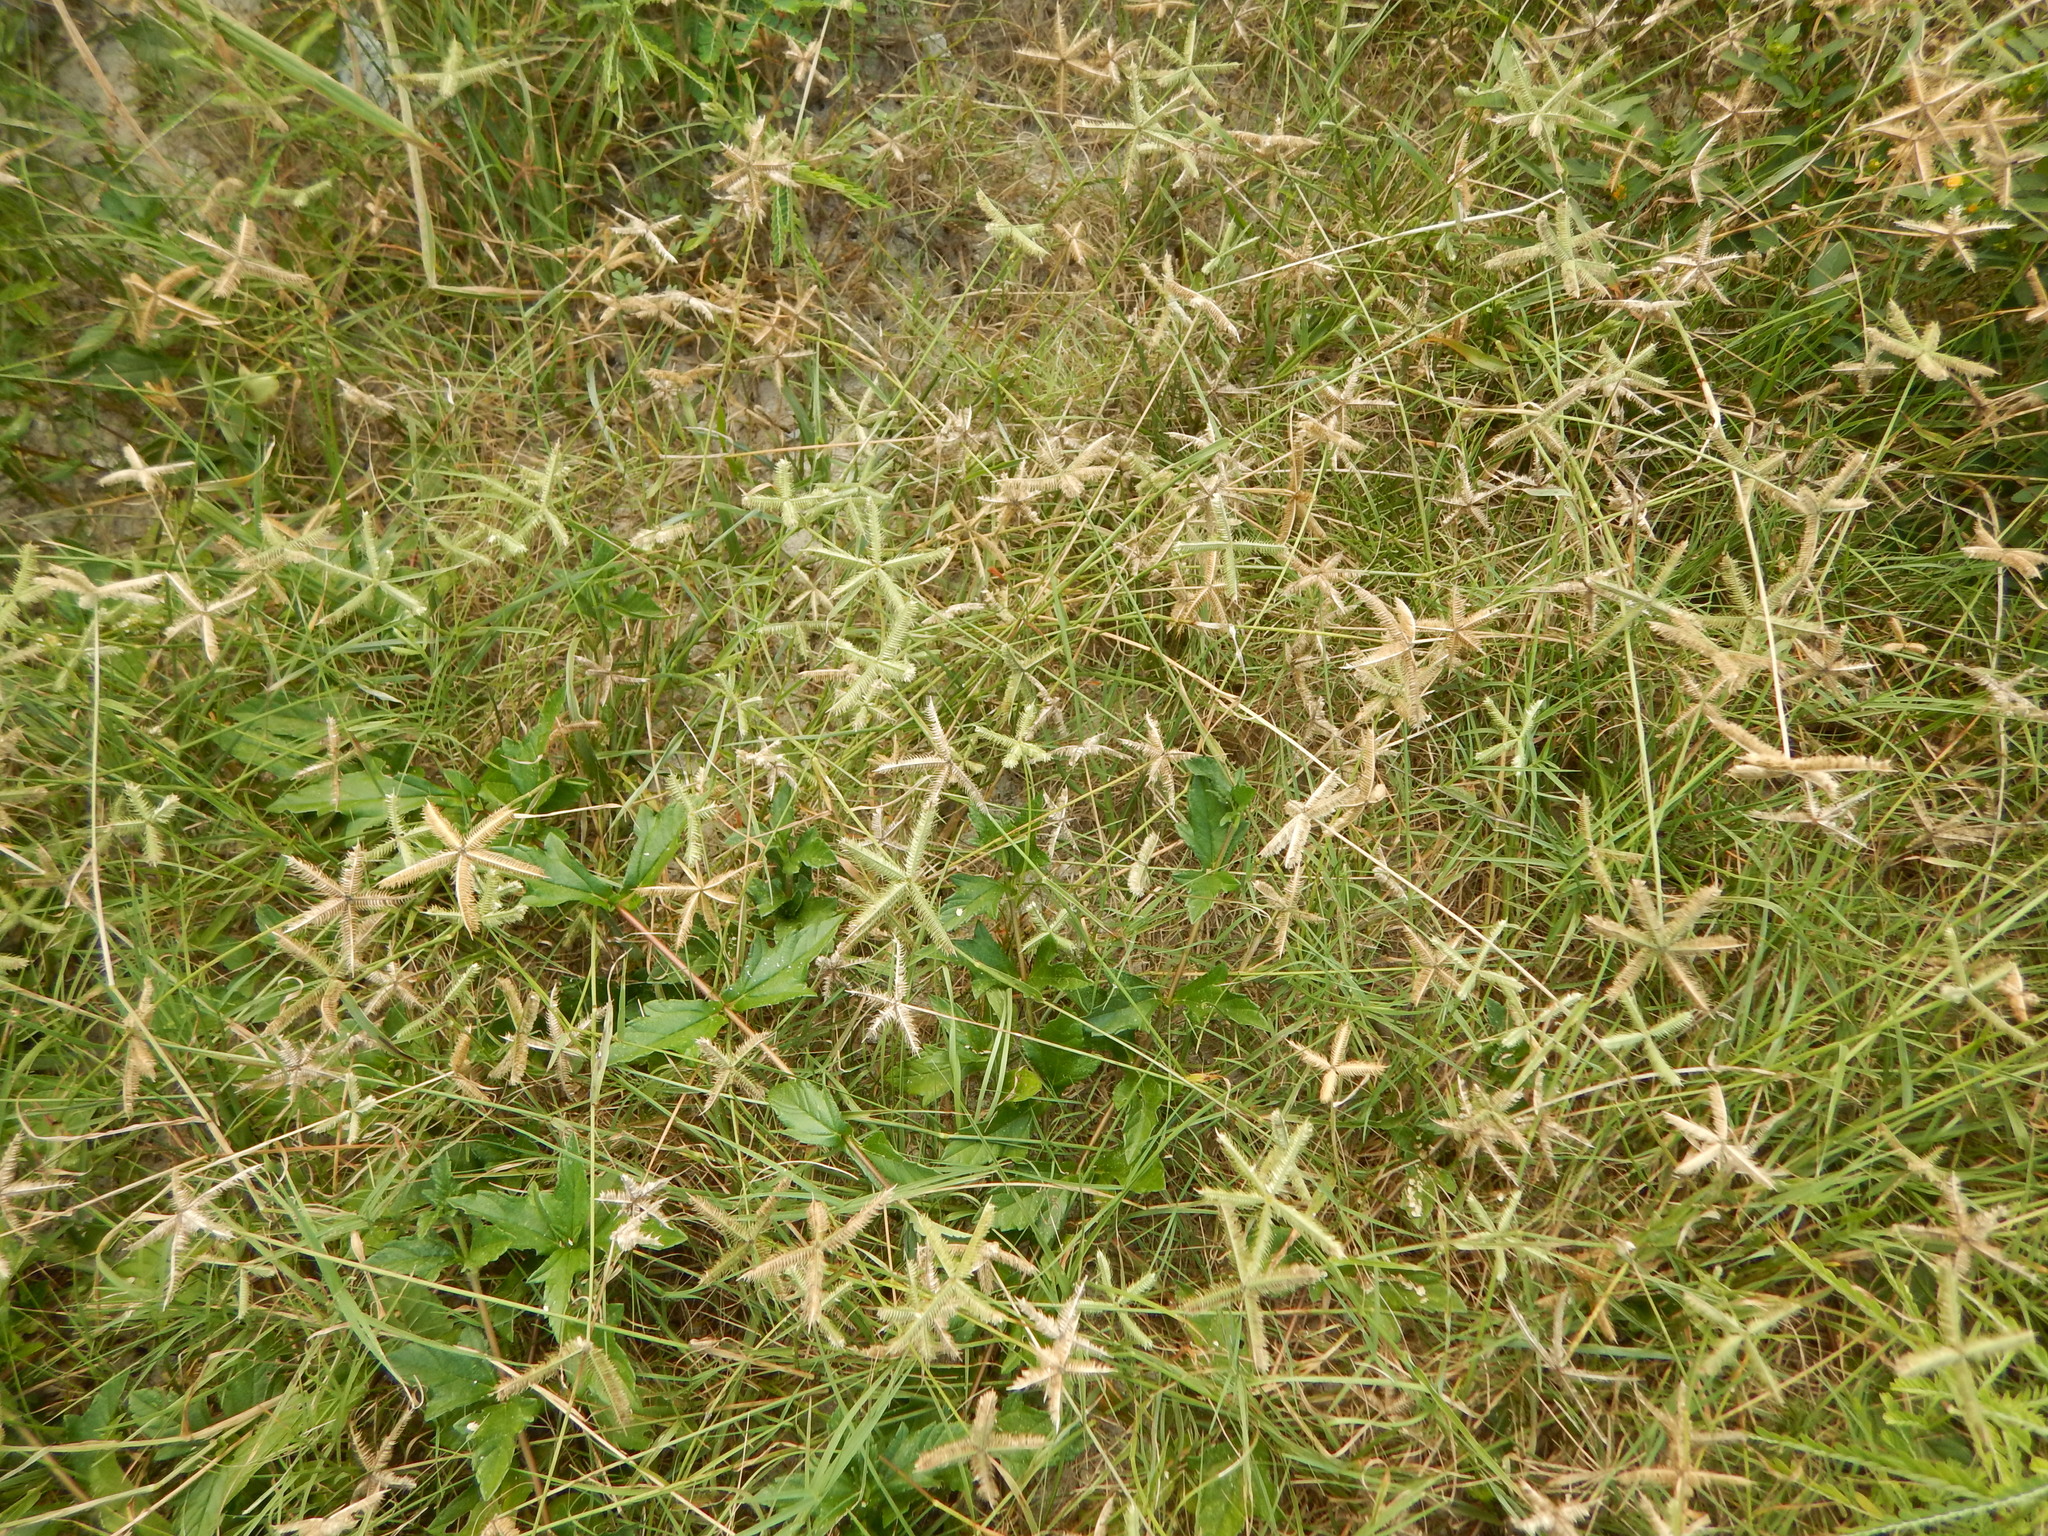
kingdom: Plantae
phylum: Tracheophyta
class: Liliopsida
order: Poales
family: Poaceae
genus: Dactyloctenium
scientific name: Dactyloctenium aegyptium
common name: Egyptian grass
